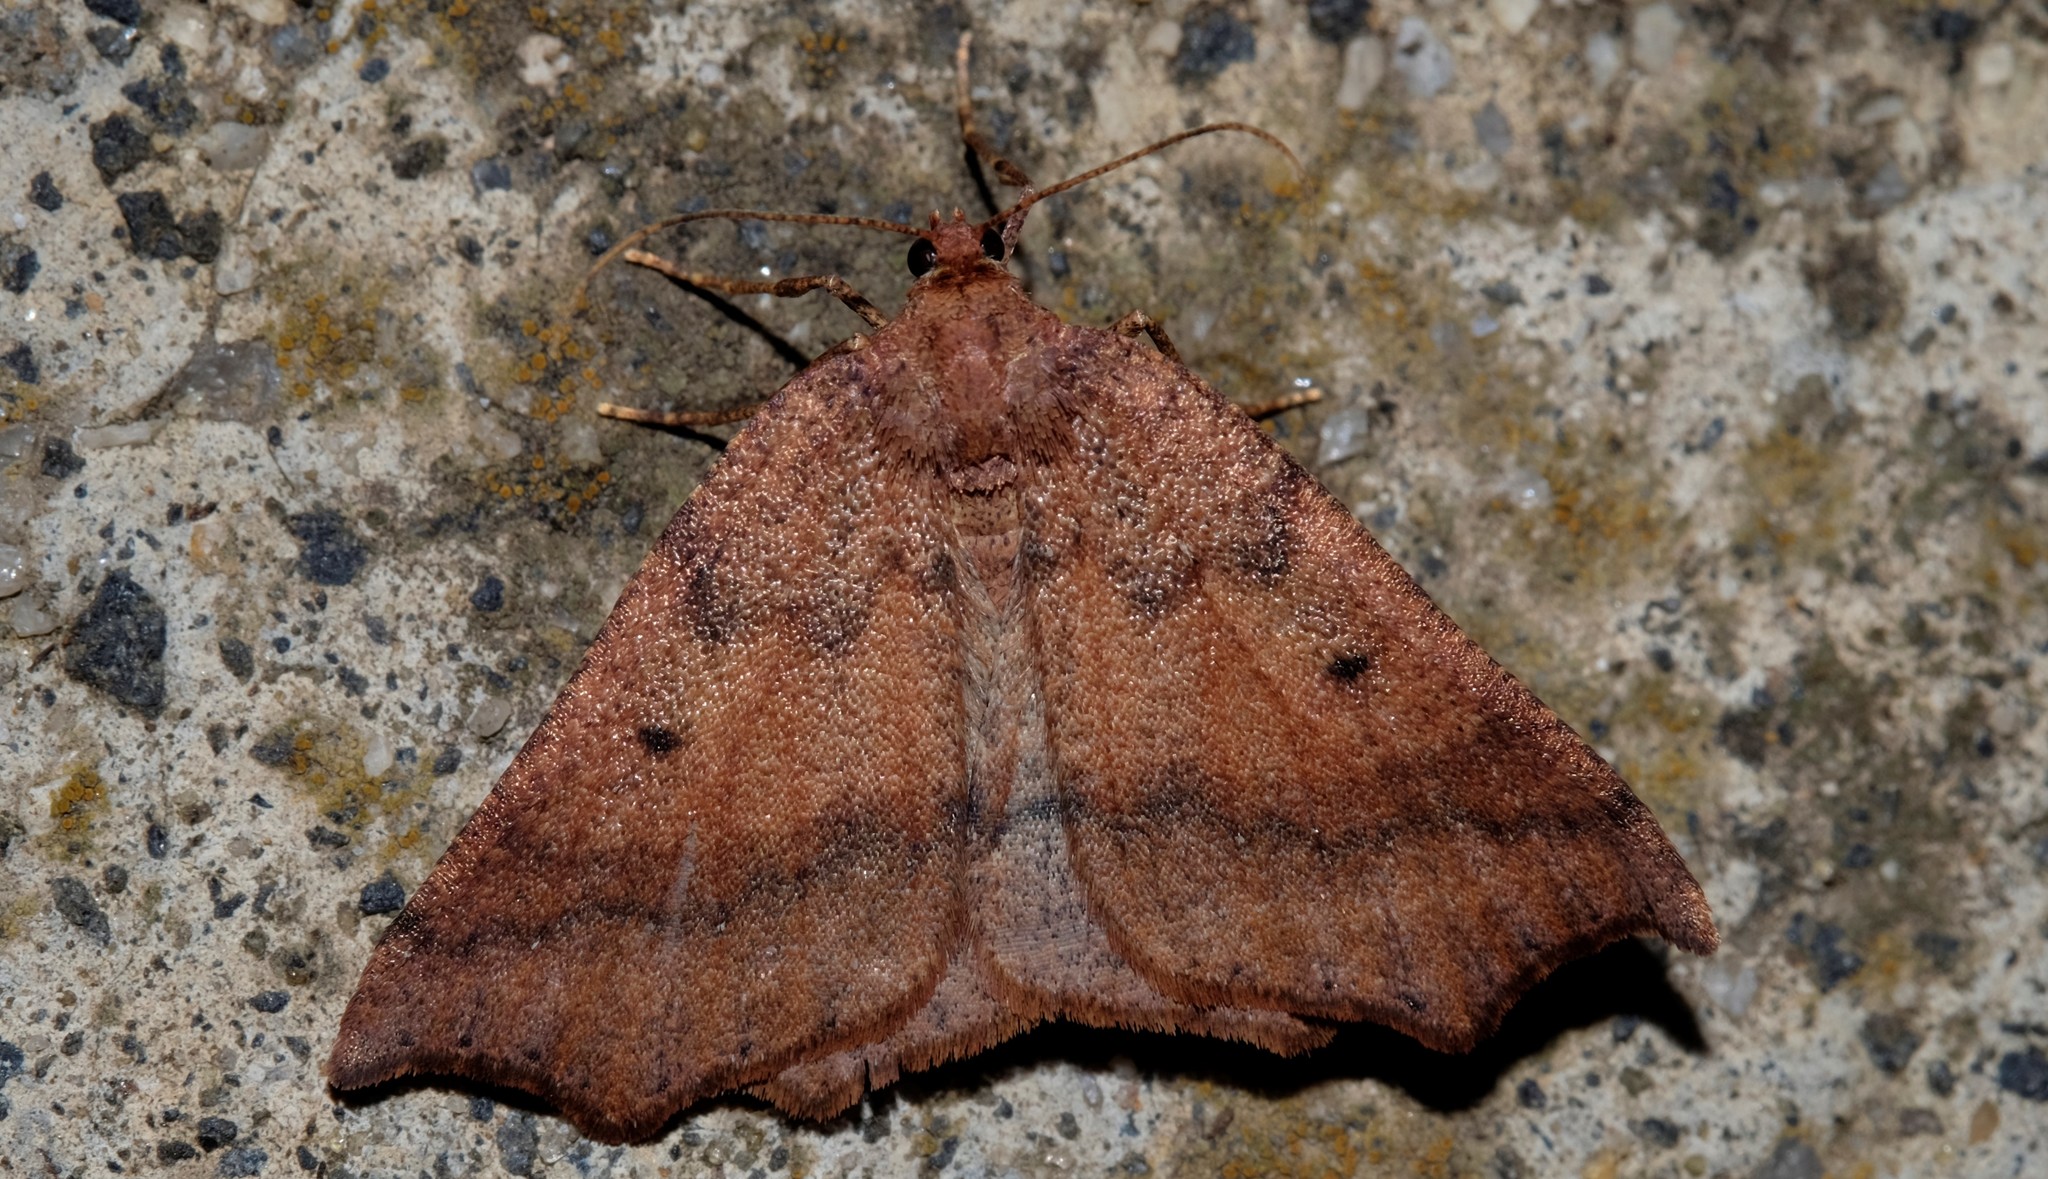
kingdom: Animalia
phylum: Arthropoda
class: Insecta
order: Lepidoptera
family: Geometridae
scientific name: Geometridae
